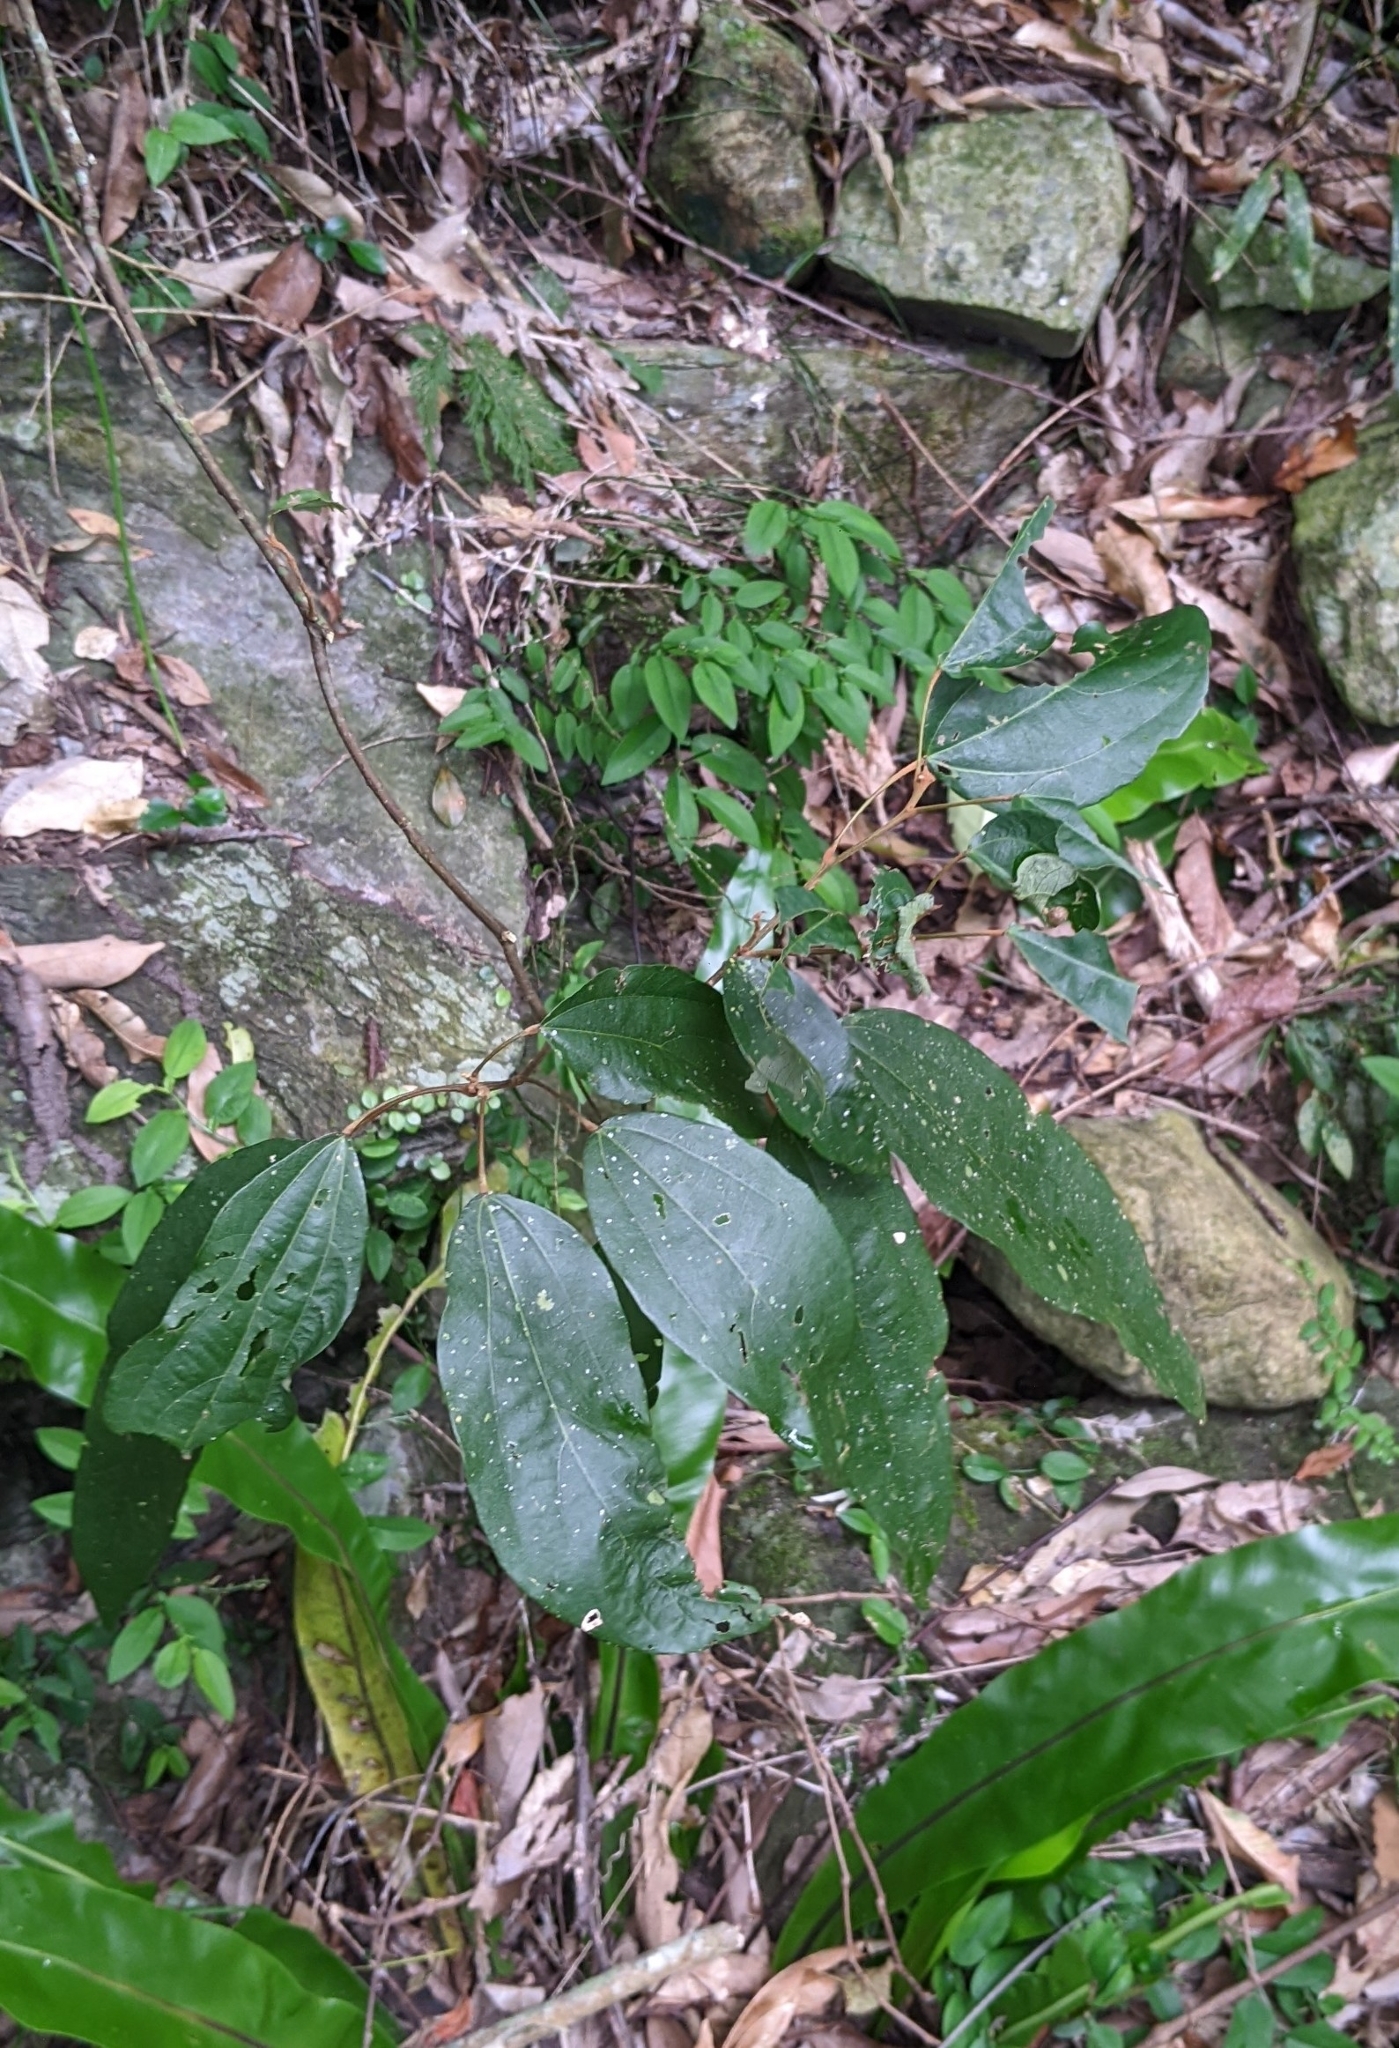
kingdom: Plantae
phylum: Tracheophyta
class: Magnoliopsida
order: Malpighiales
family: Euphorbiaceae
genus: Mallotus
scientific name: Mallotus philippensis
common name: Kamala tree
